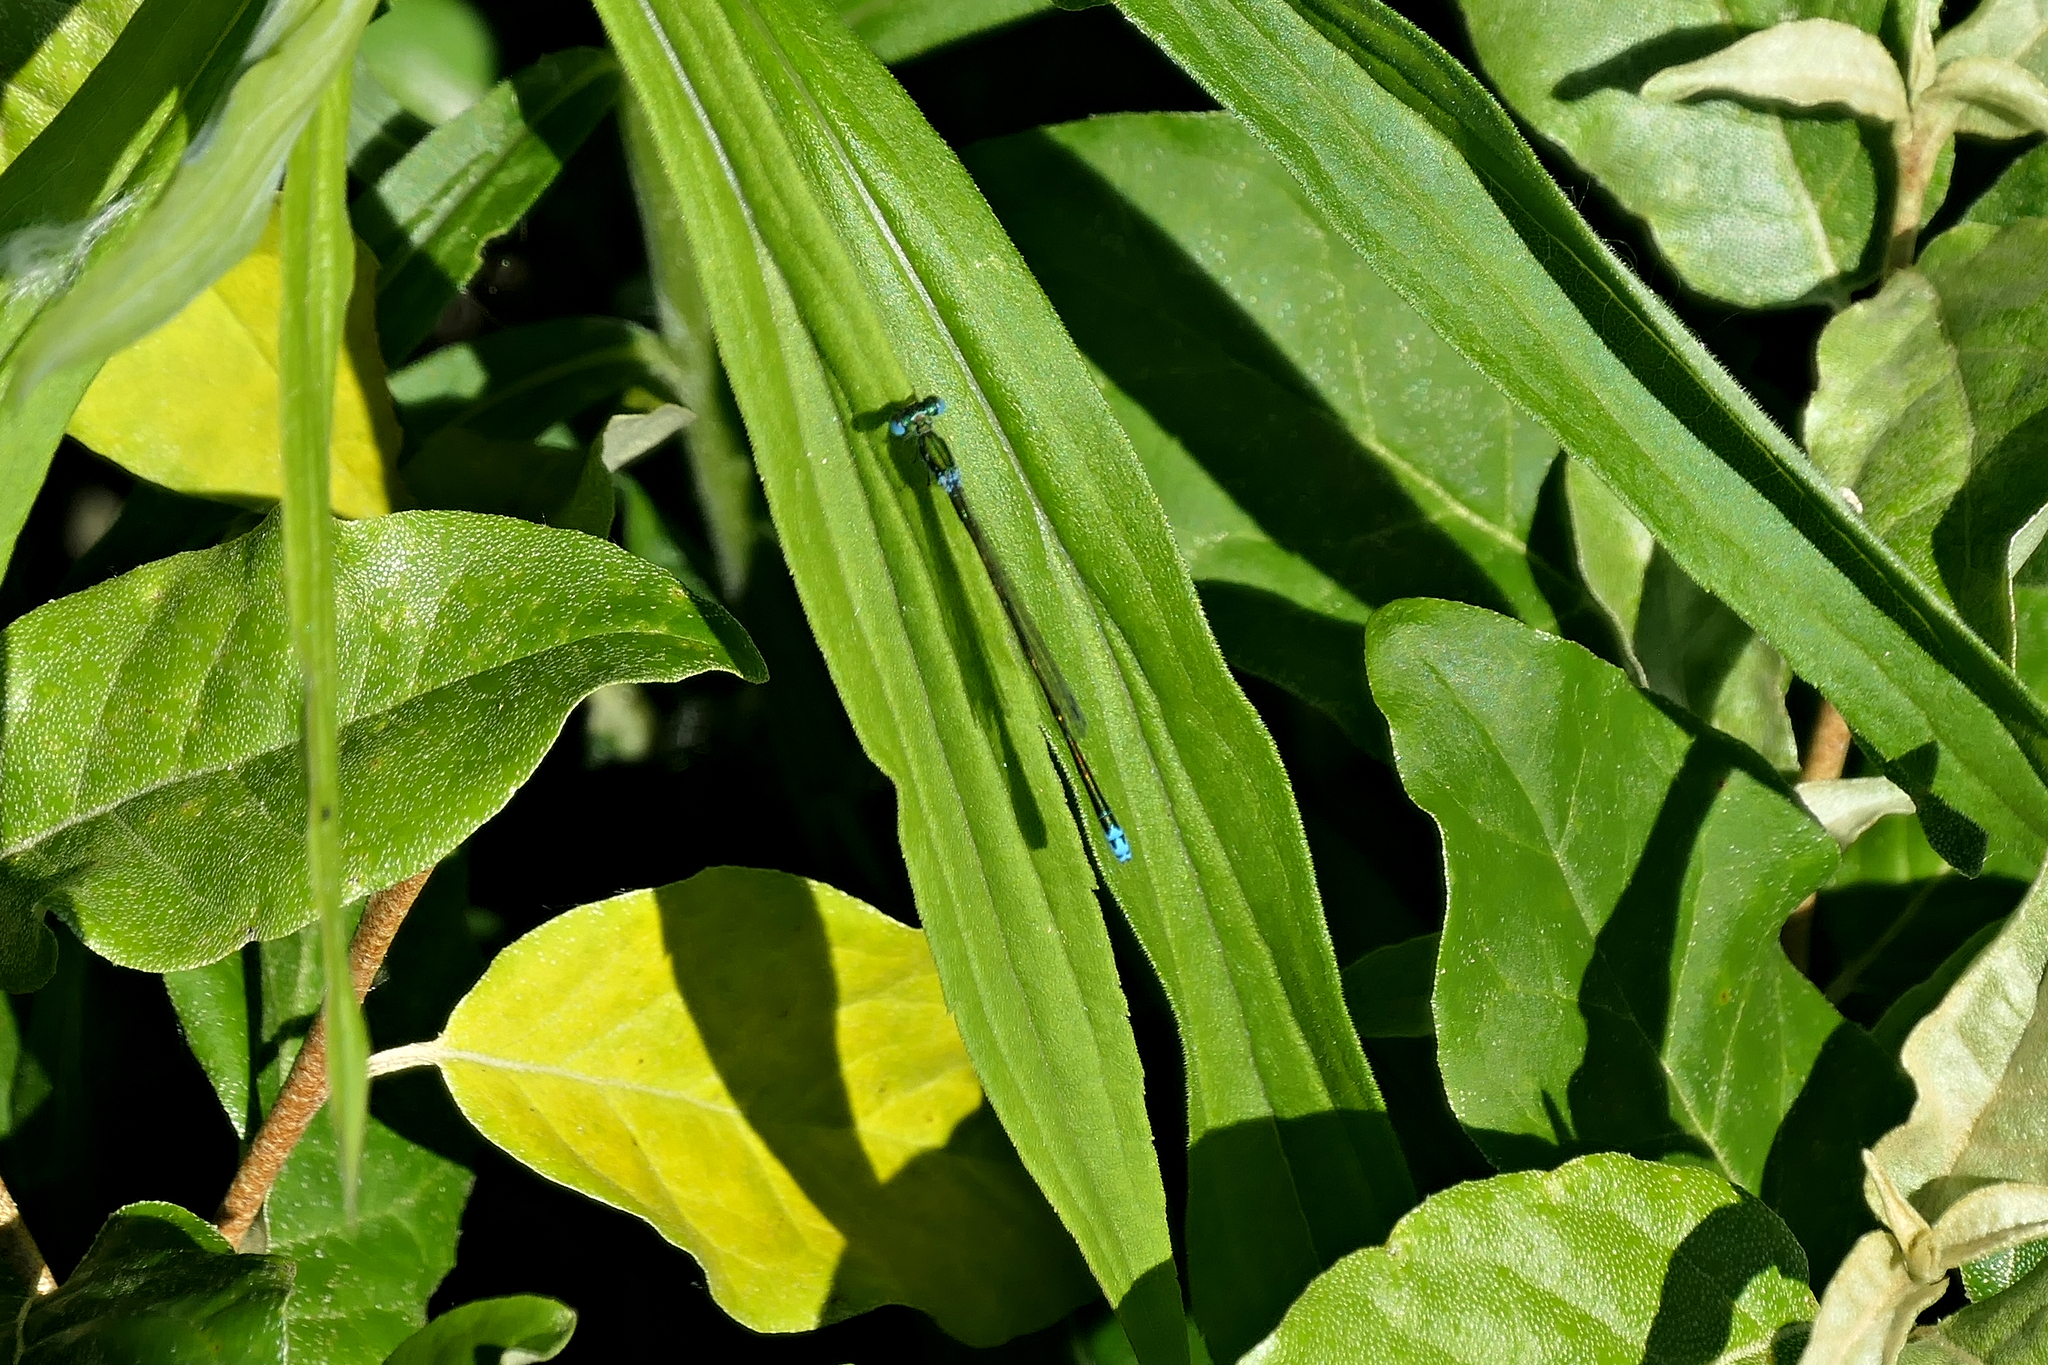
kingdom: Animalia
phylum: Arthropoda
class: Insecta
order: Odonata
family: Coenagrionidae
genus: Nehalennia
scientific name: Nehalennia irene
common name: Sedge sprite
